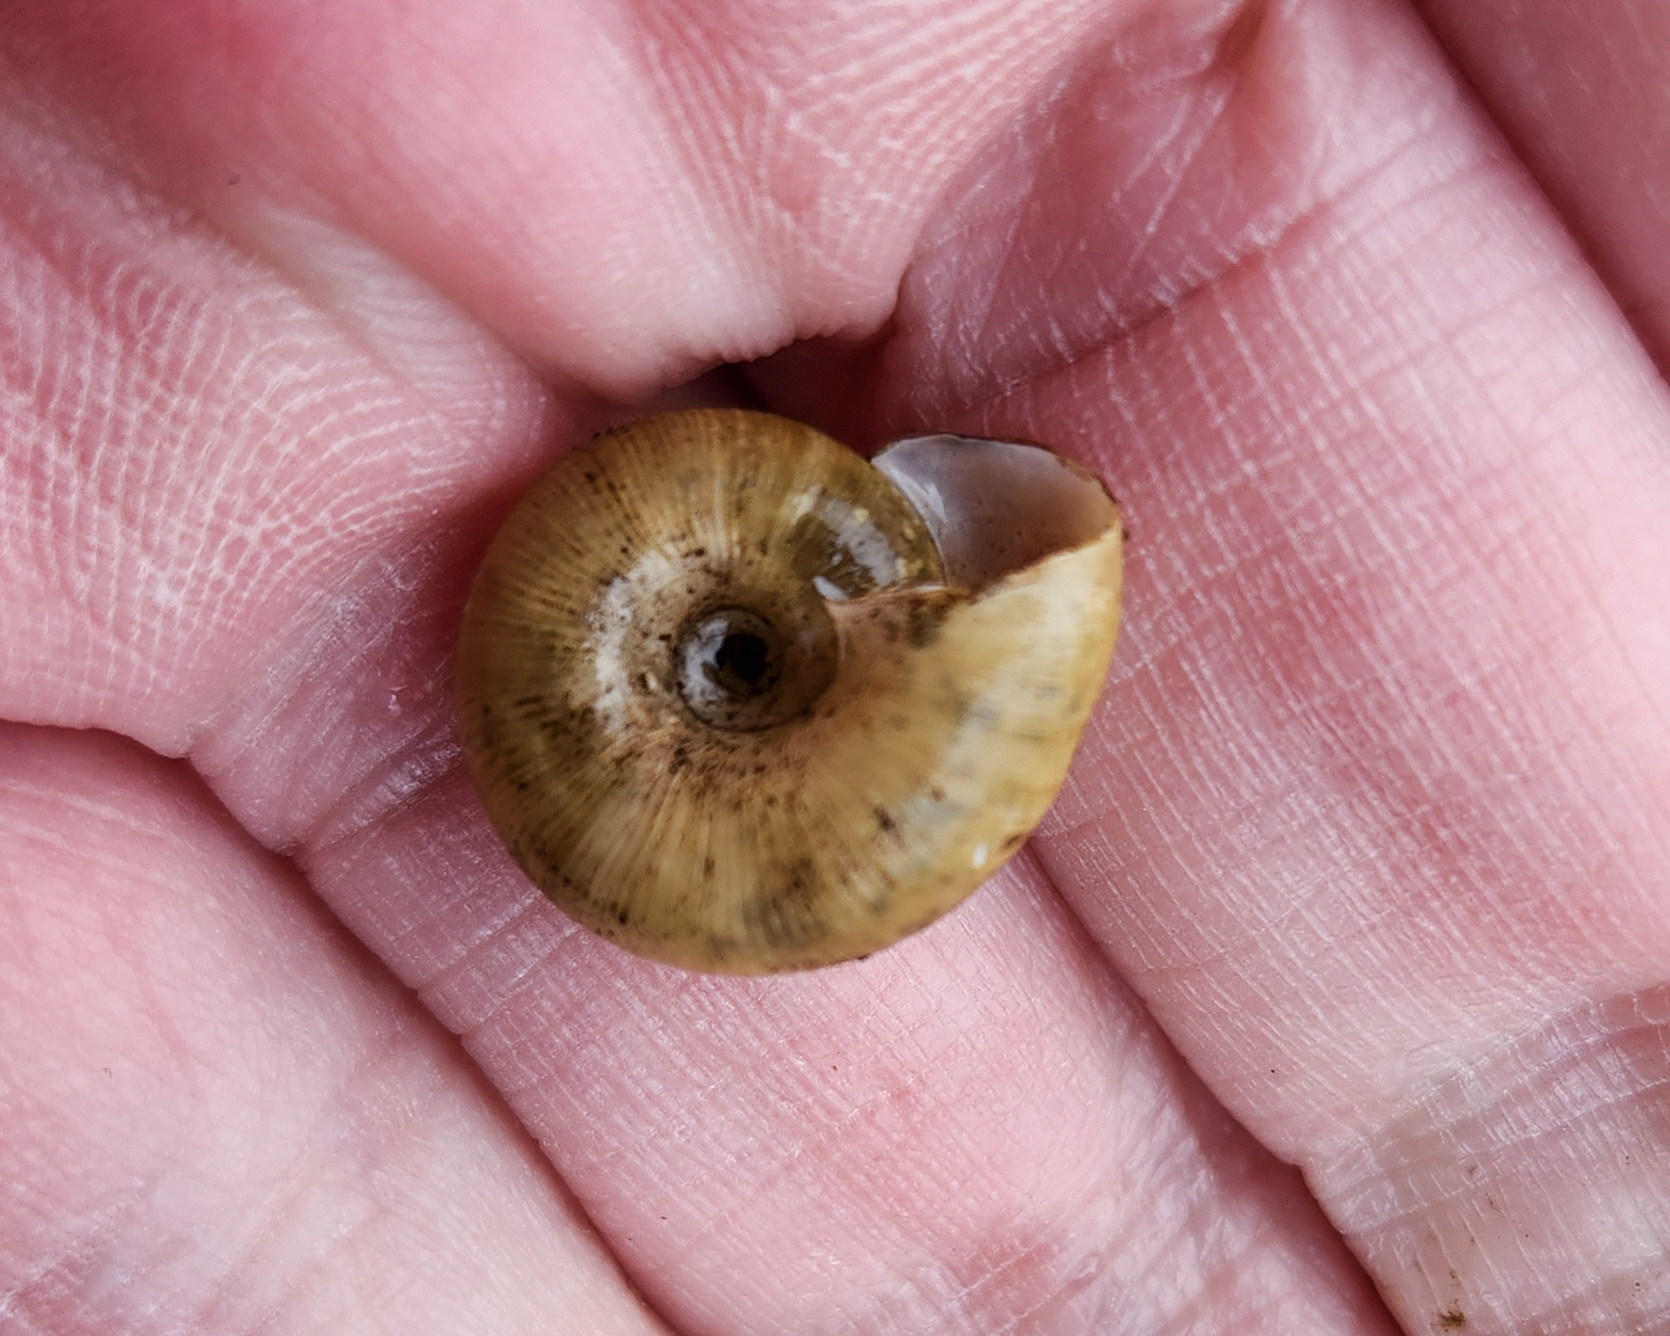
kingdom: Animalia
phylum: Mollusca
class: Gastropoda
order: Stylommatophora
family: Haplotrematidae
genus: Ancotrema
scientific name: Ancotrema sportella
